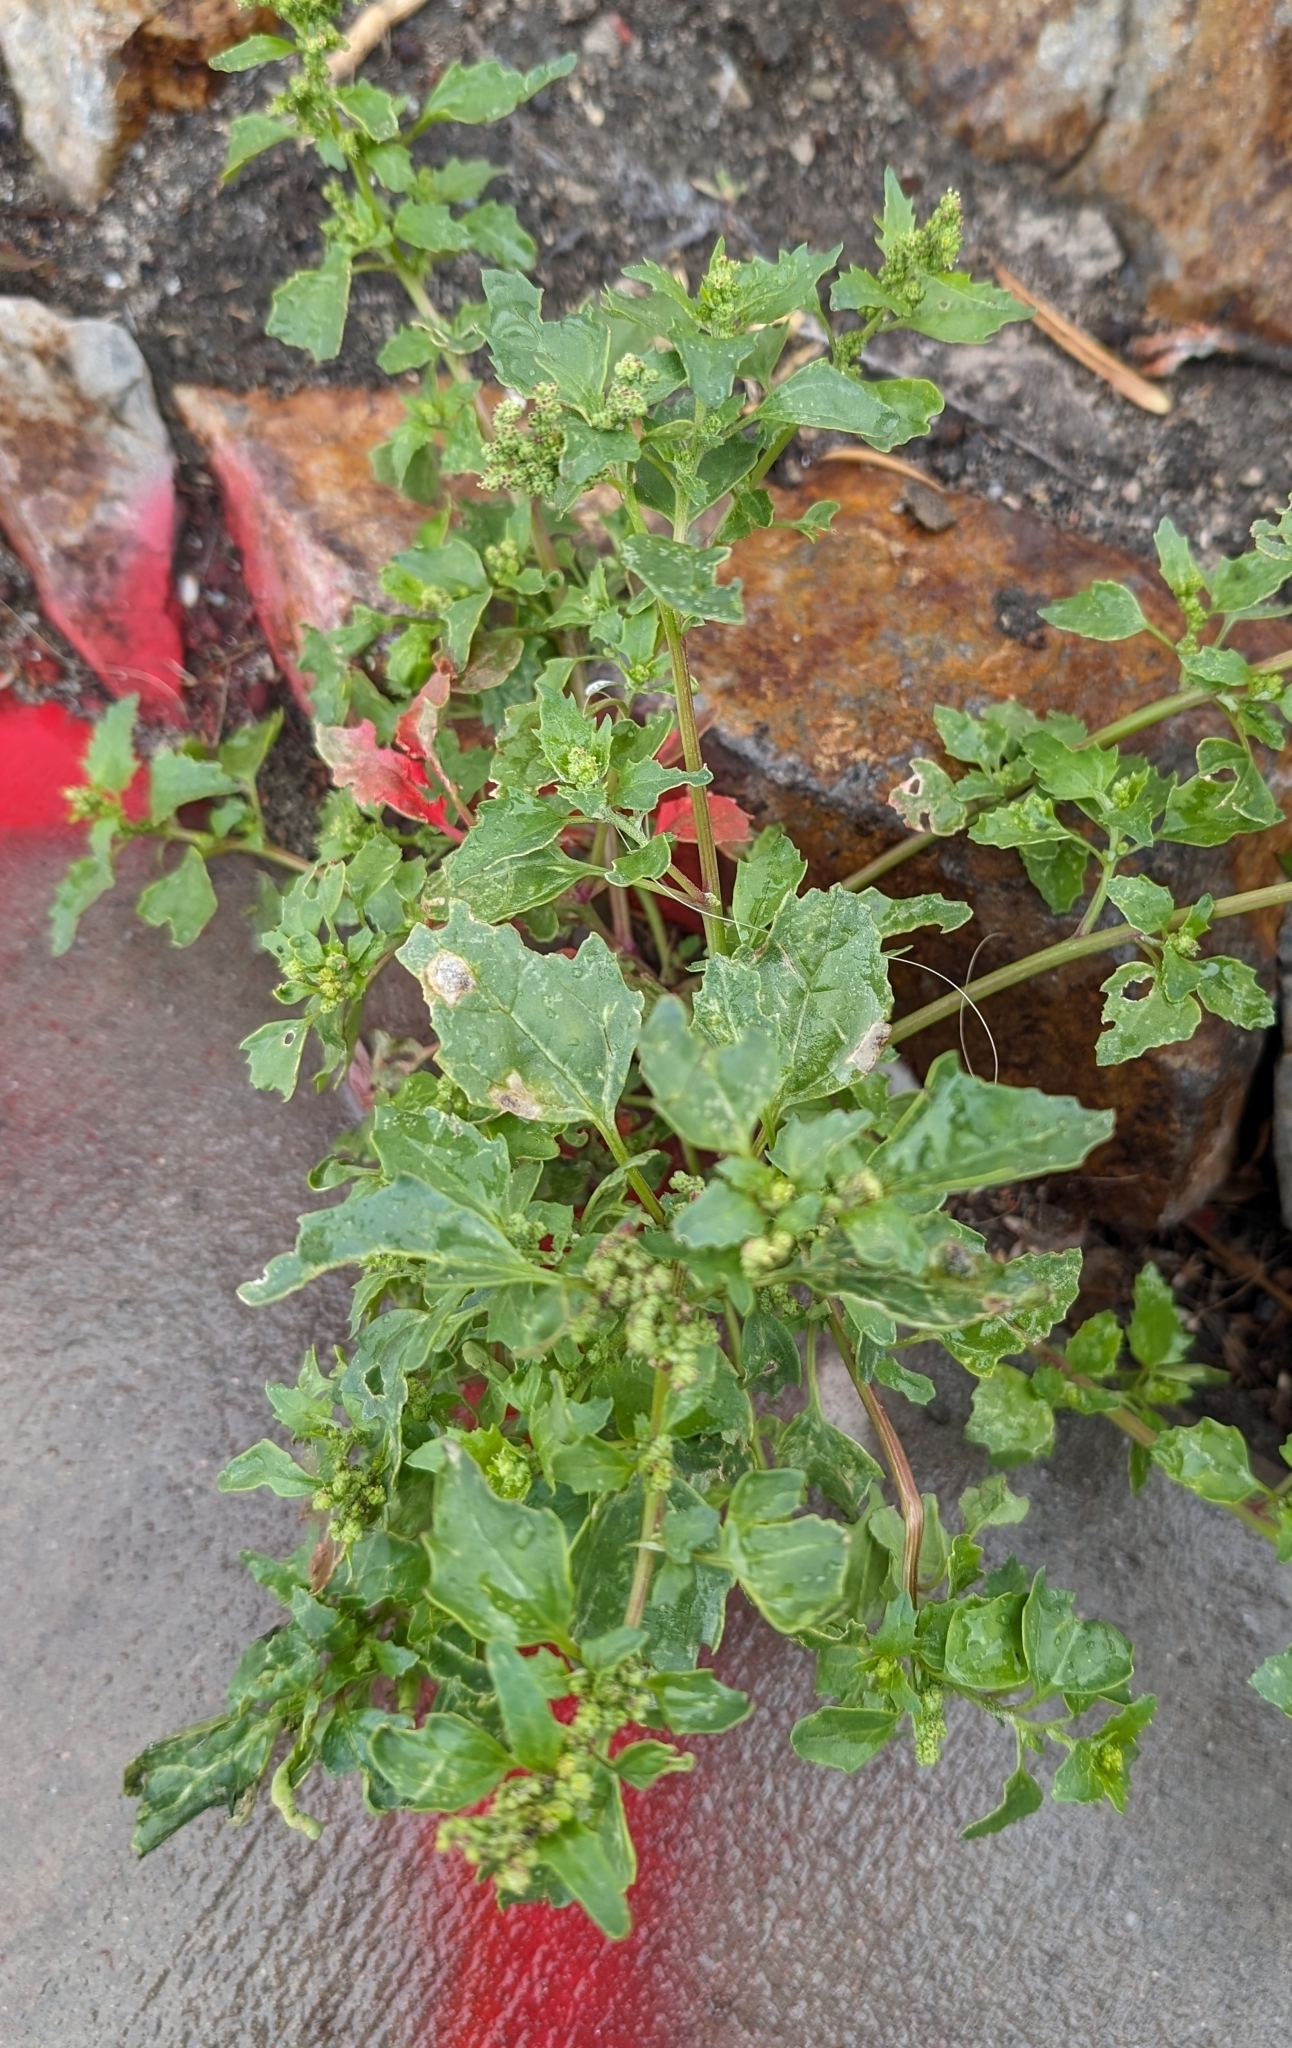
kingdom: Plantae
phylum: Tracheophyta
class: Magnoliopsida
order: Caryophyllales
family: Amaranthaceae
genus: Chenopodiastrum
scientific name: Chenopodiastrum murale
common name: Sowbane
